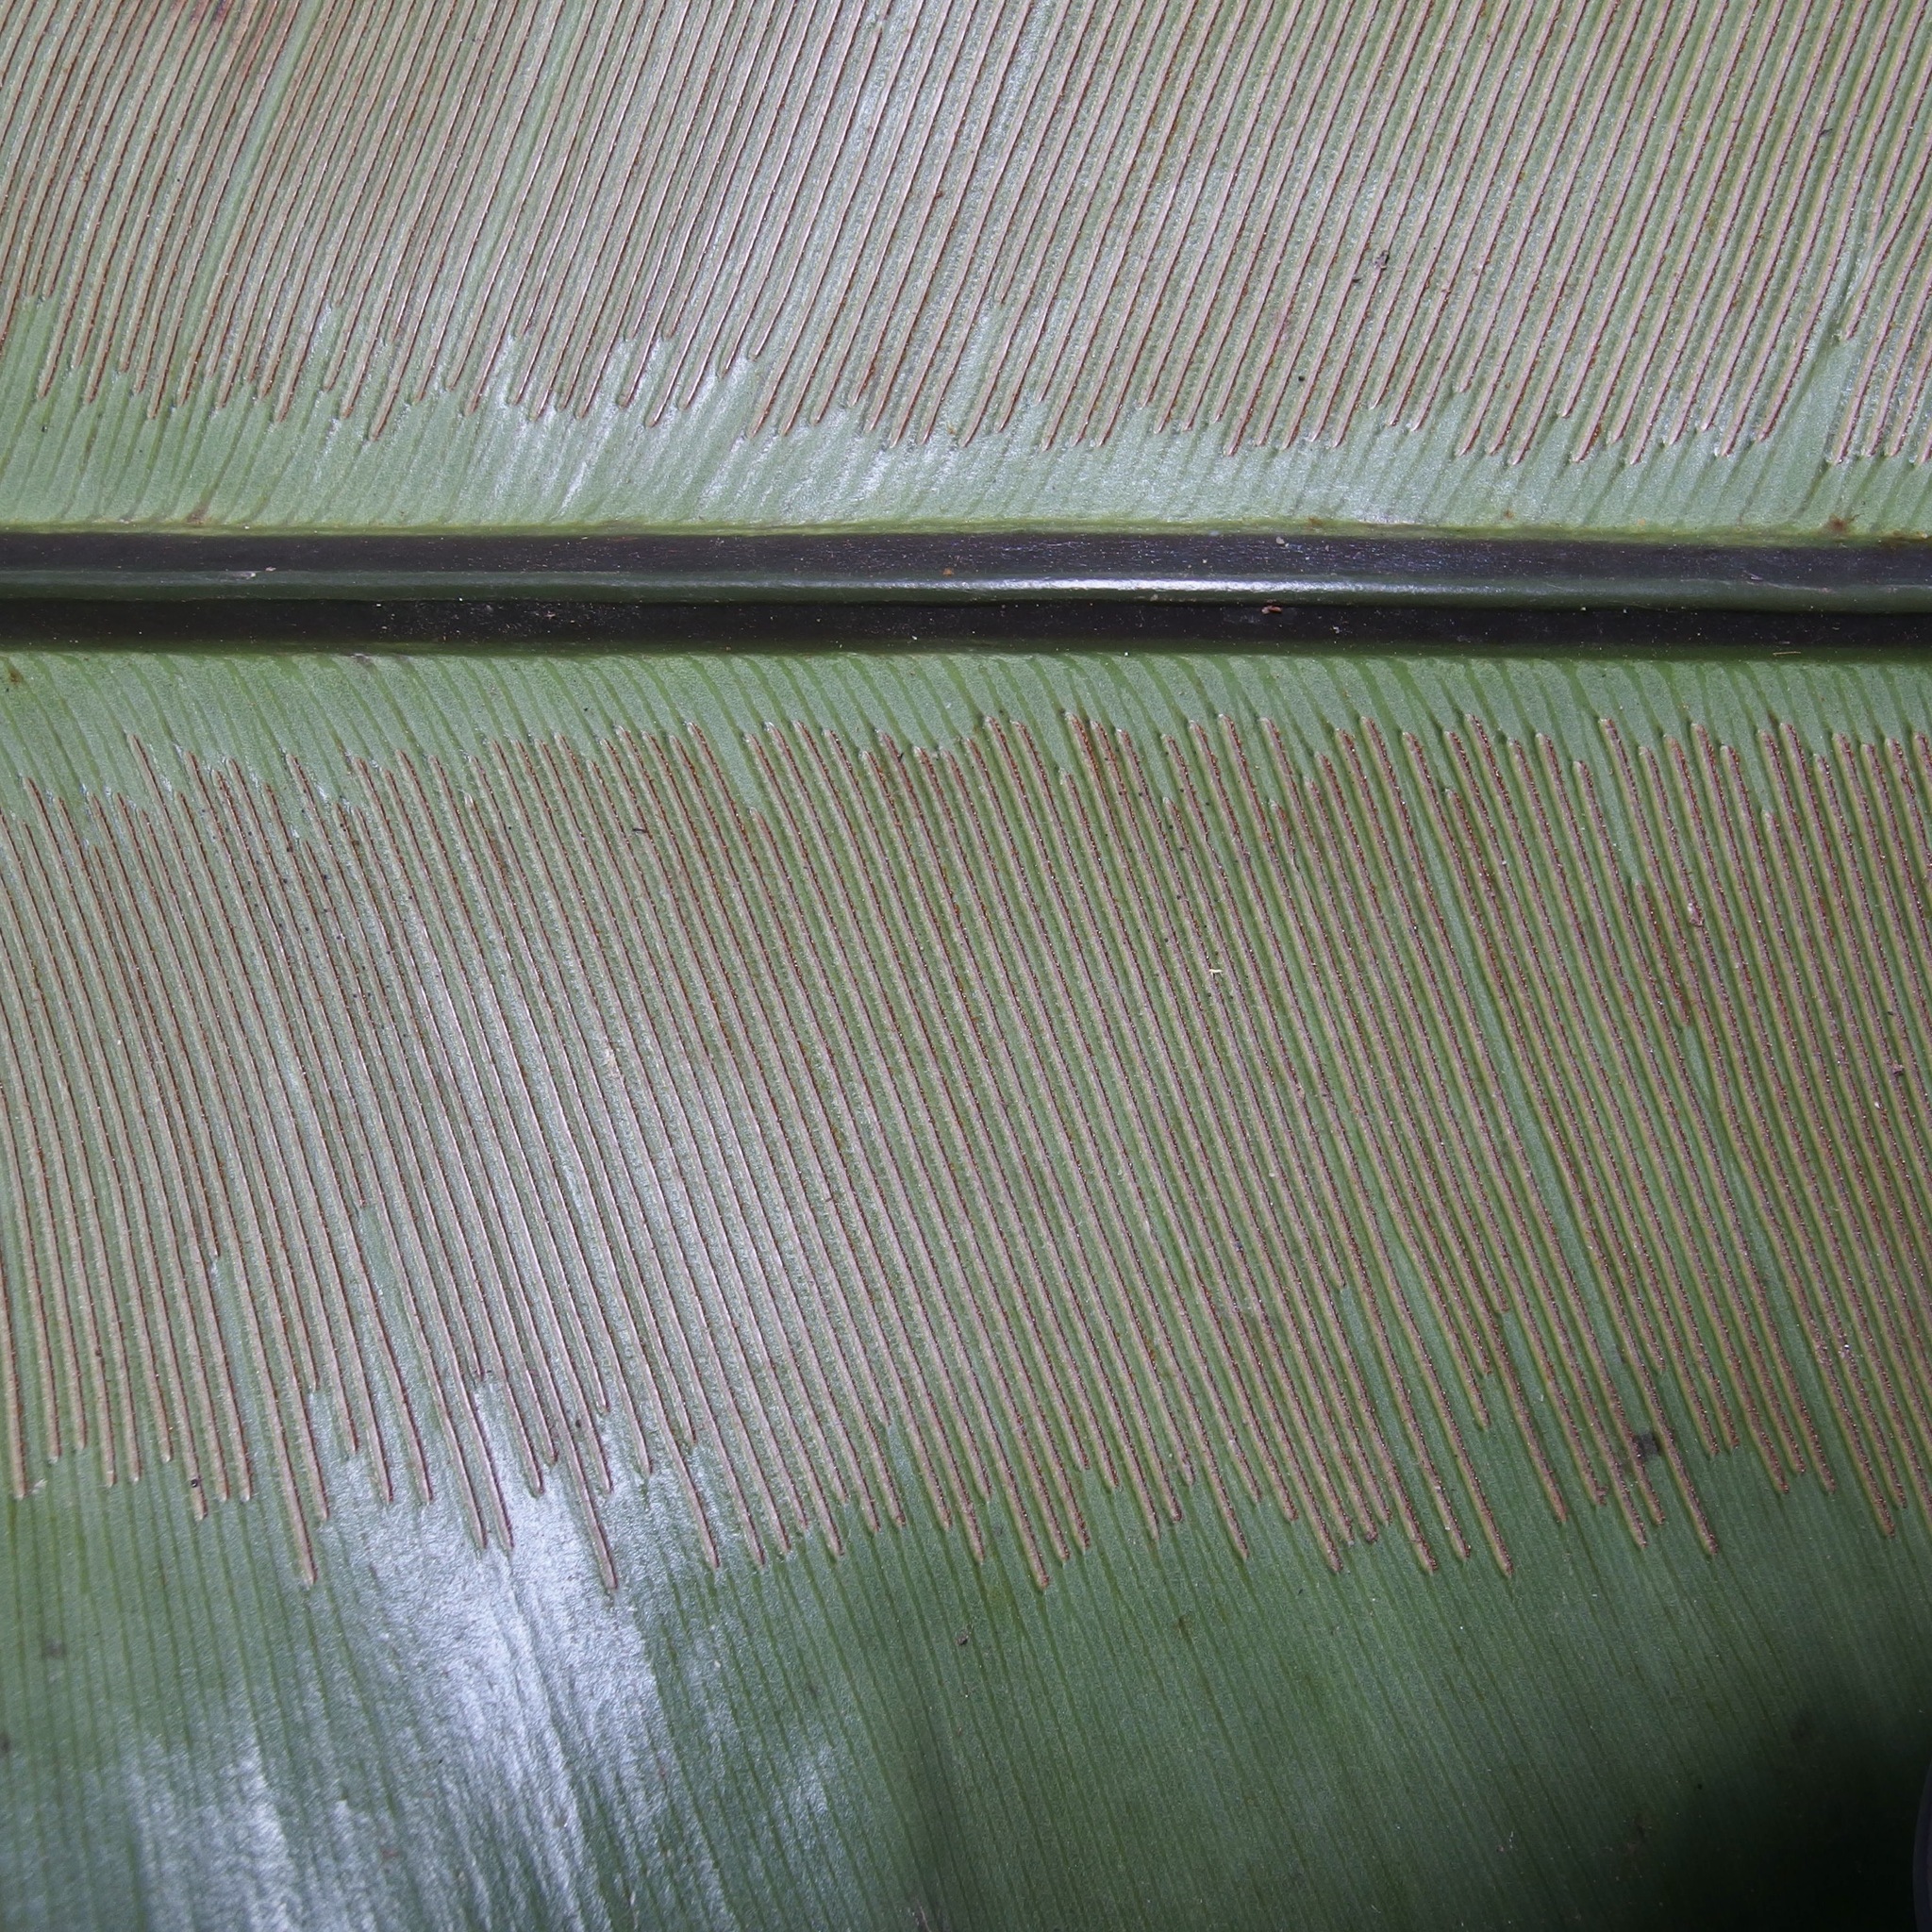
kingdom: Plantae
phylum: Tracheophyta
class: Polypodiopsida
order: Polypodiales
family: Aspleniaceae
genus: Asplenium
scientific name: Asplenium australasicum
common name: Bird's-nest fern
